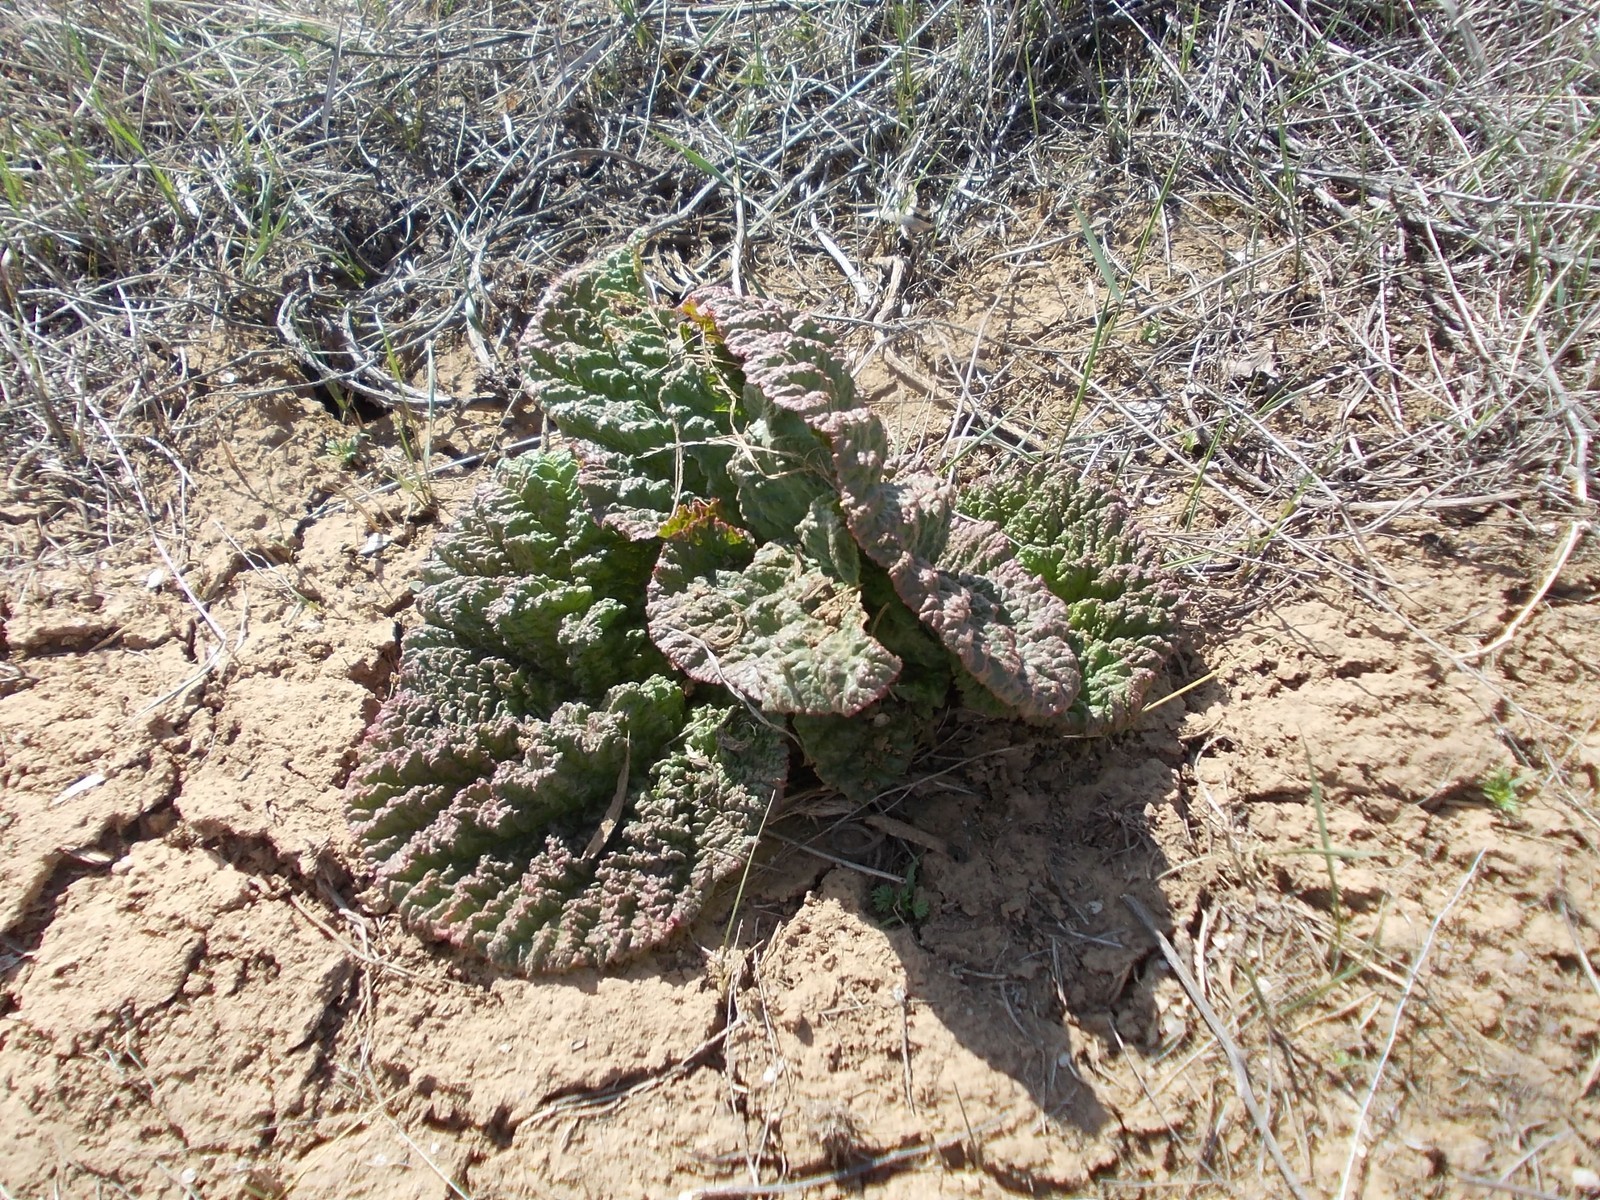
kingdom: Plantae
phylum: Tracheophyta
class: Magnoliopsida
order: Caryophyllales
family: Polygonaceae
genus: Rheum
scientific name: Rheum tataricum
